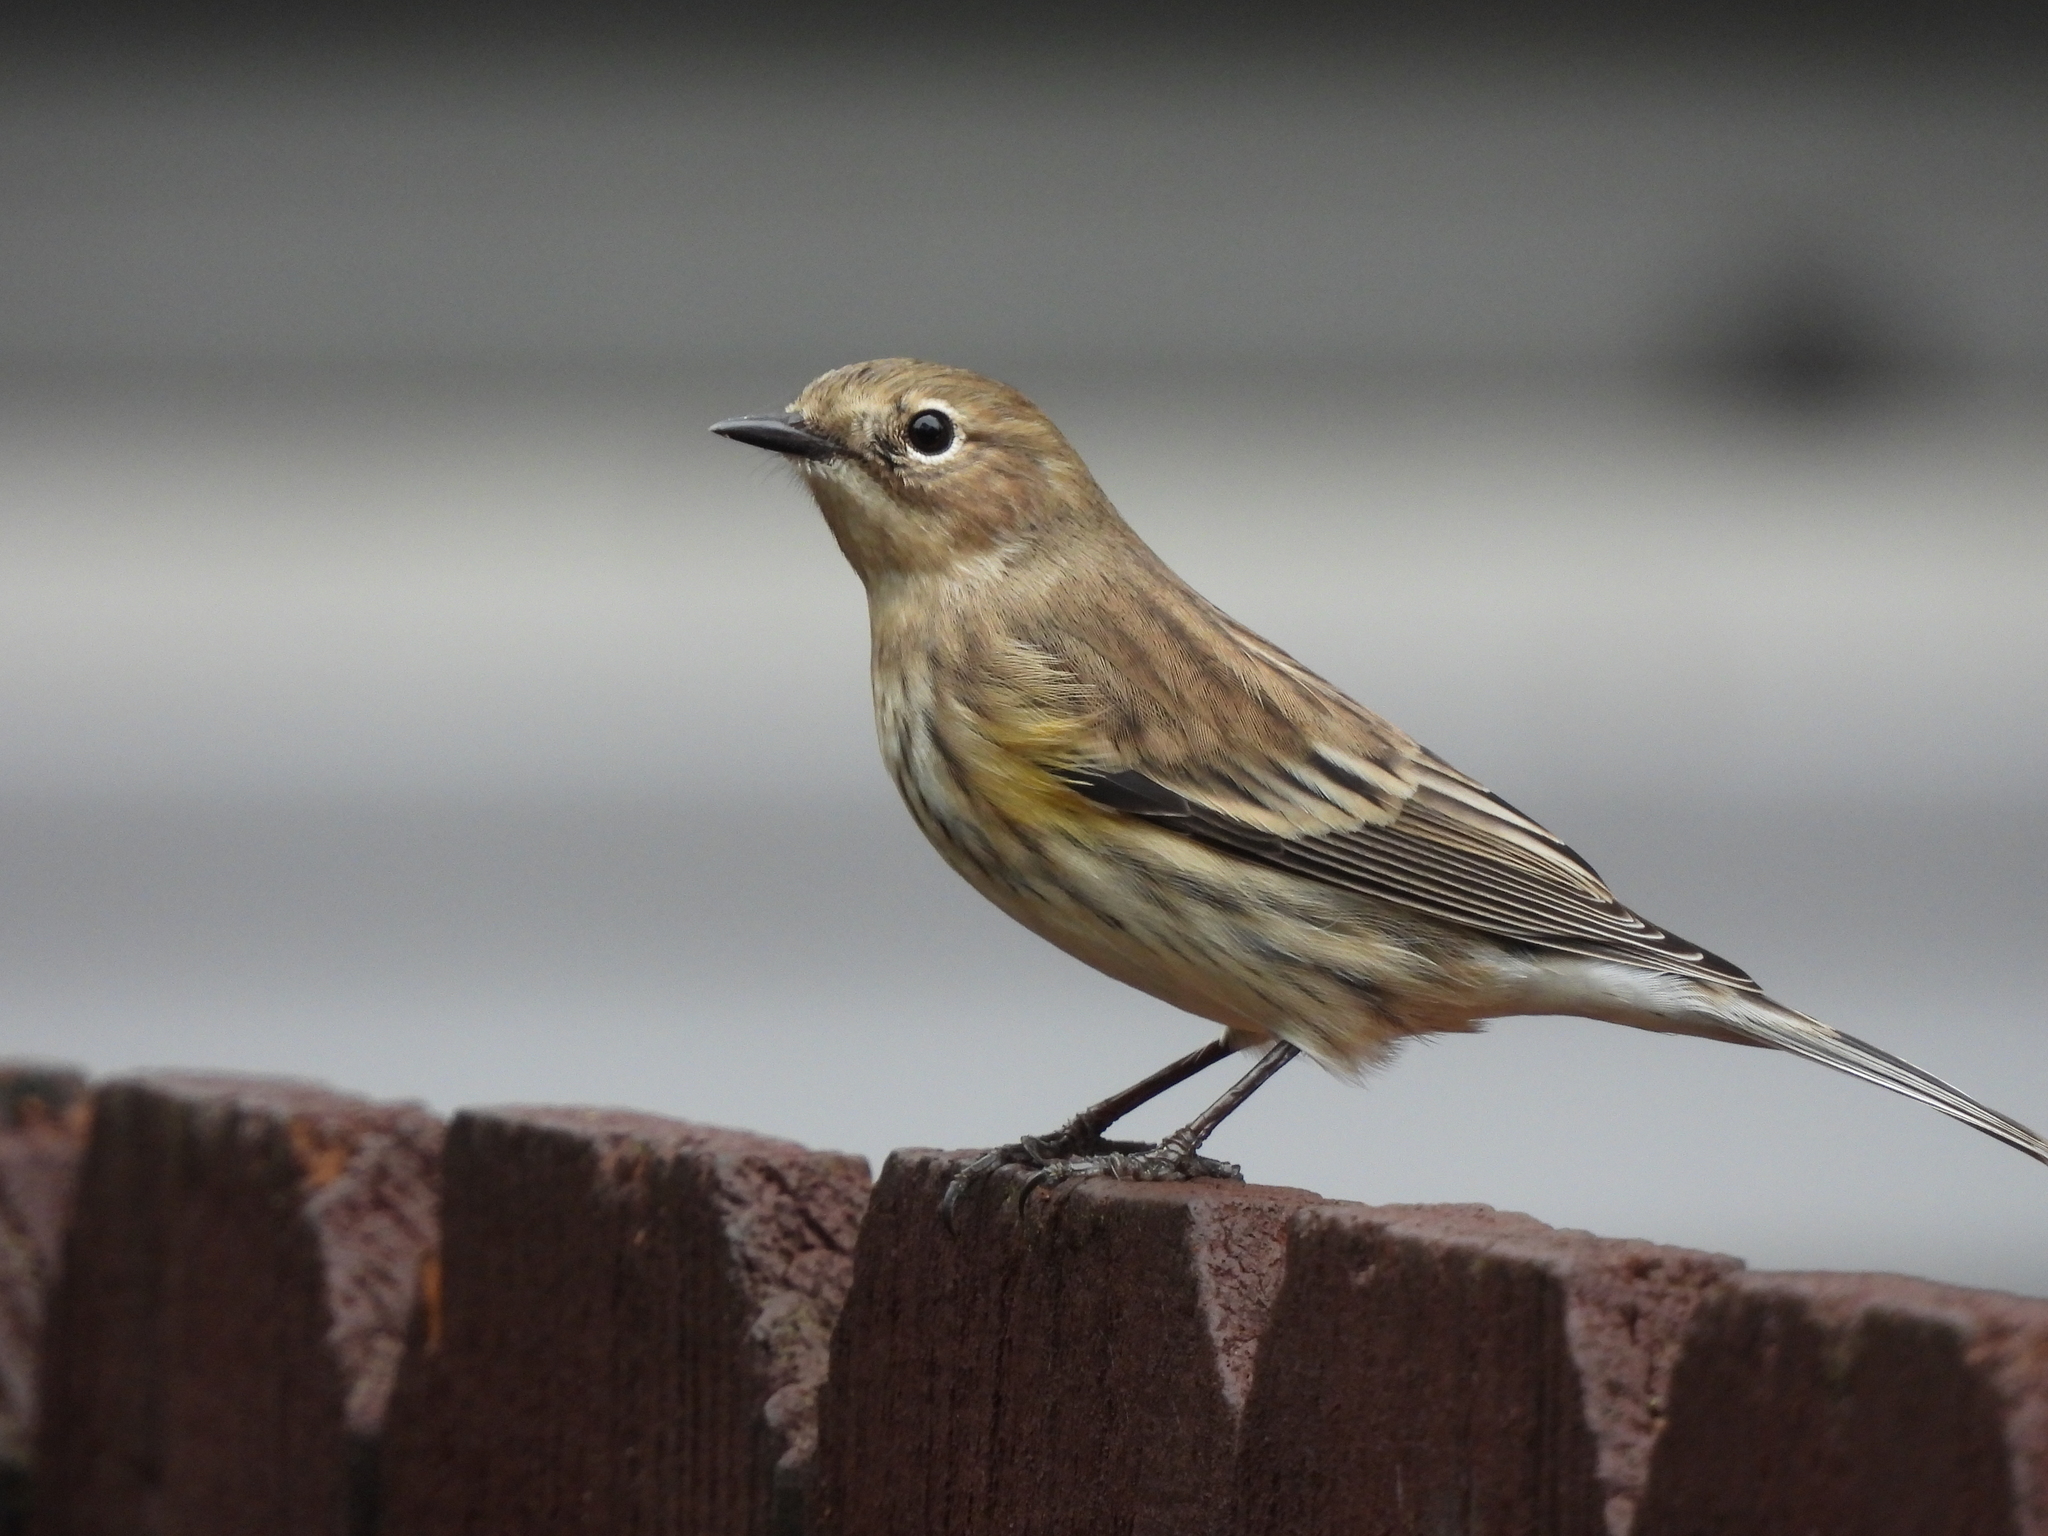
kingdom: Animalia
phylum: Chordata
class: Aves
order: Passeriformes
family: Parulidae
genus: Setophaga
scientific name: Setophaga coronata
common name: Myrtle warbler
